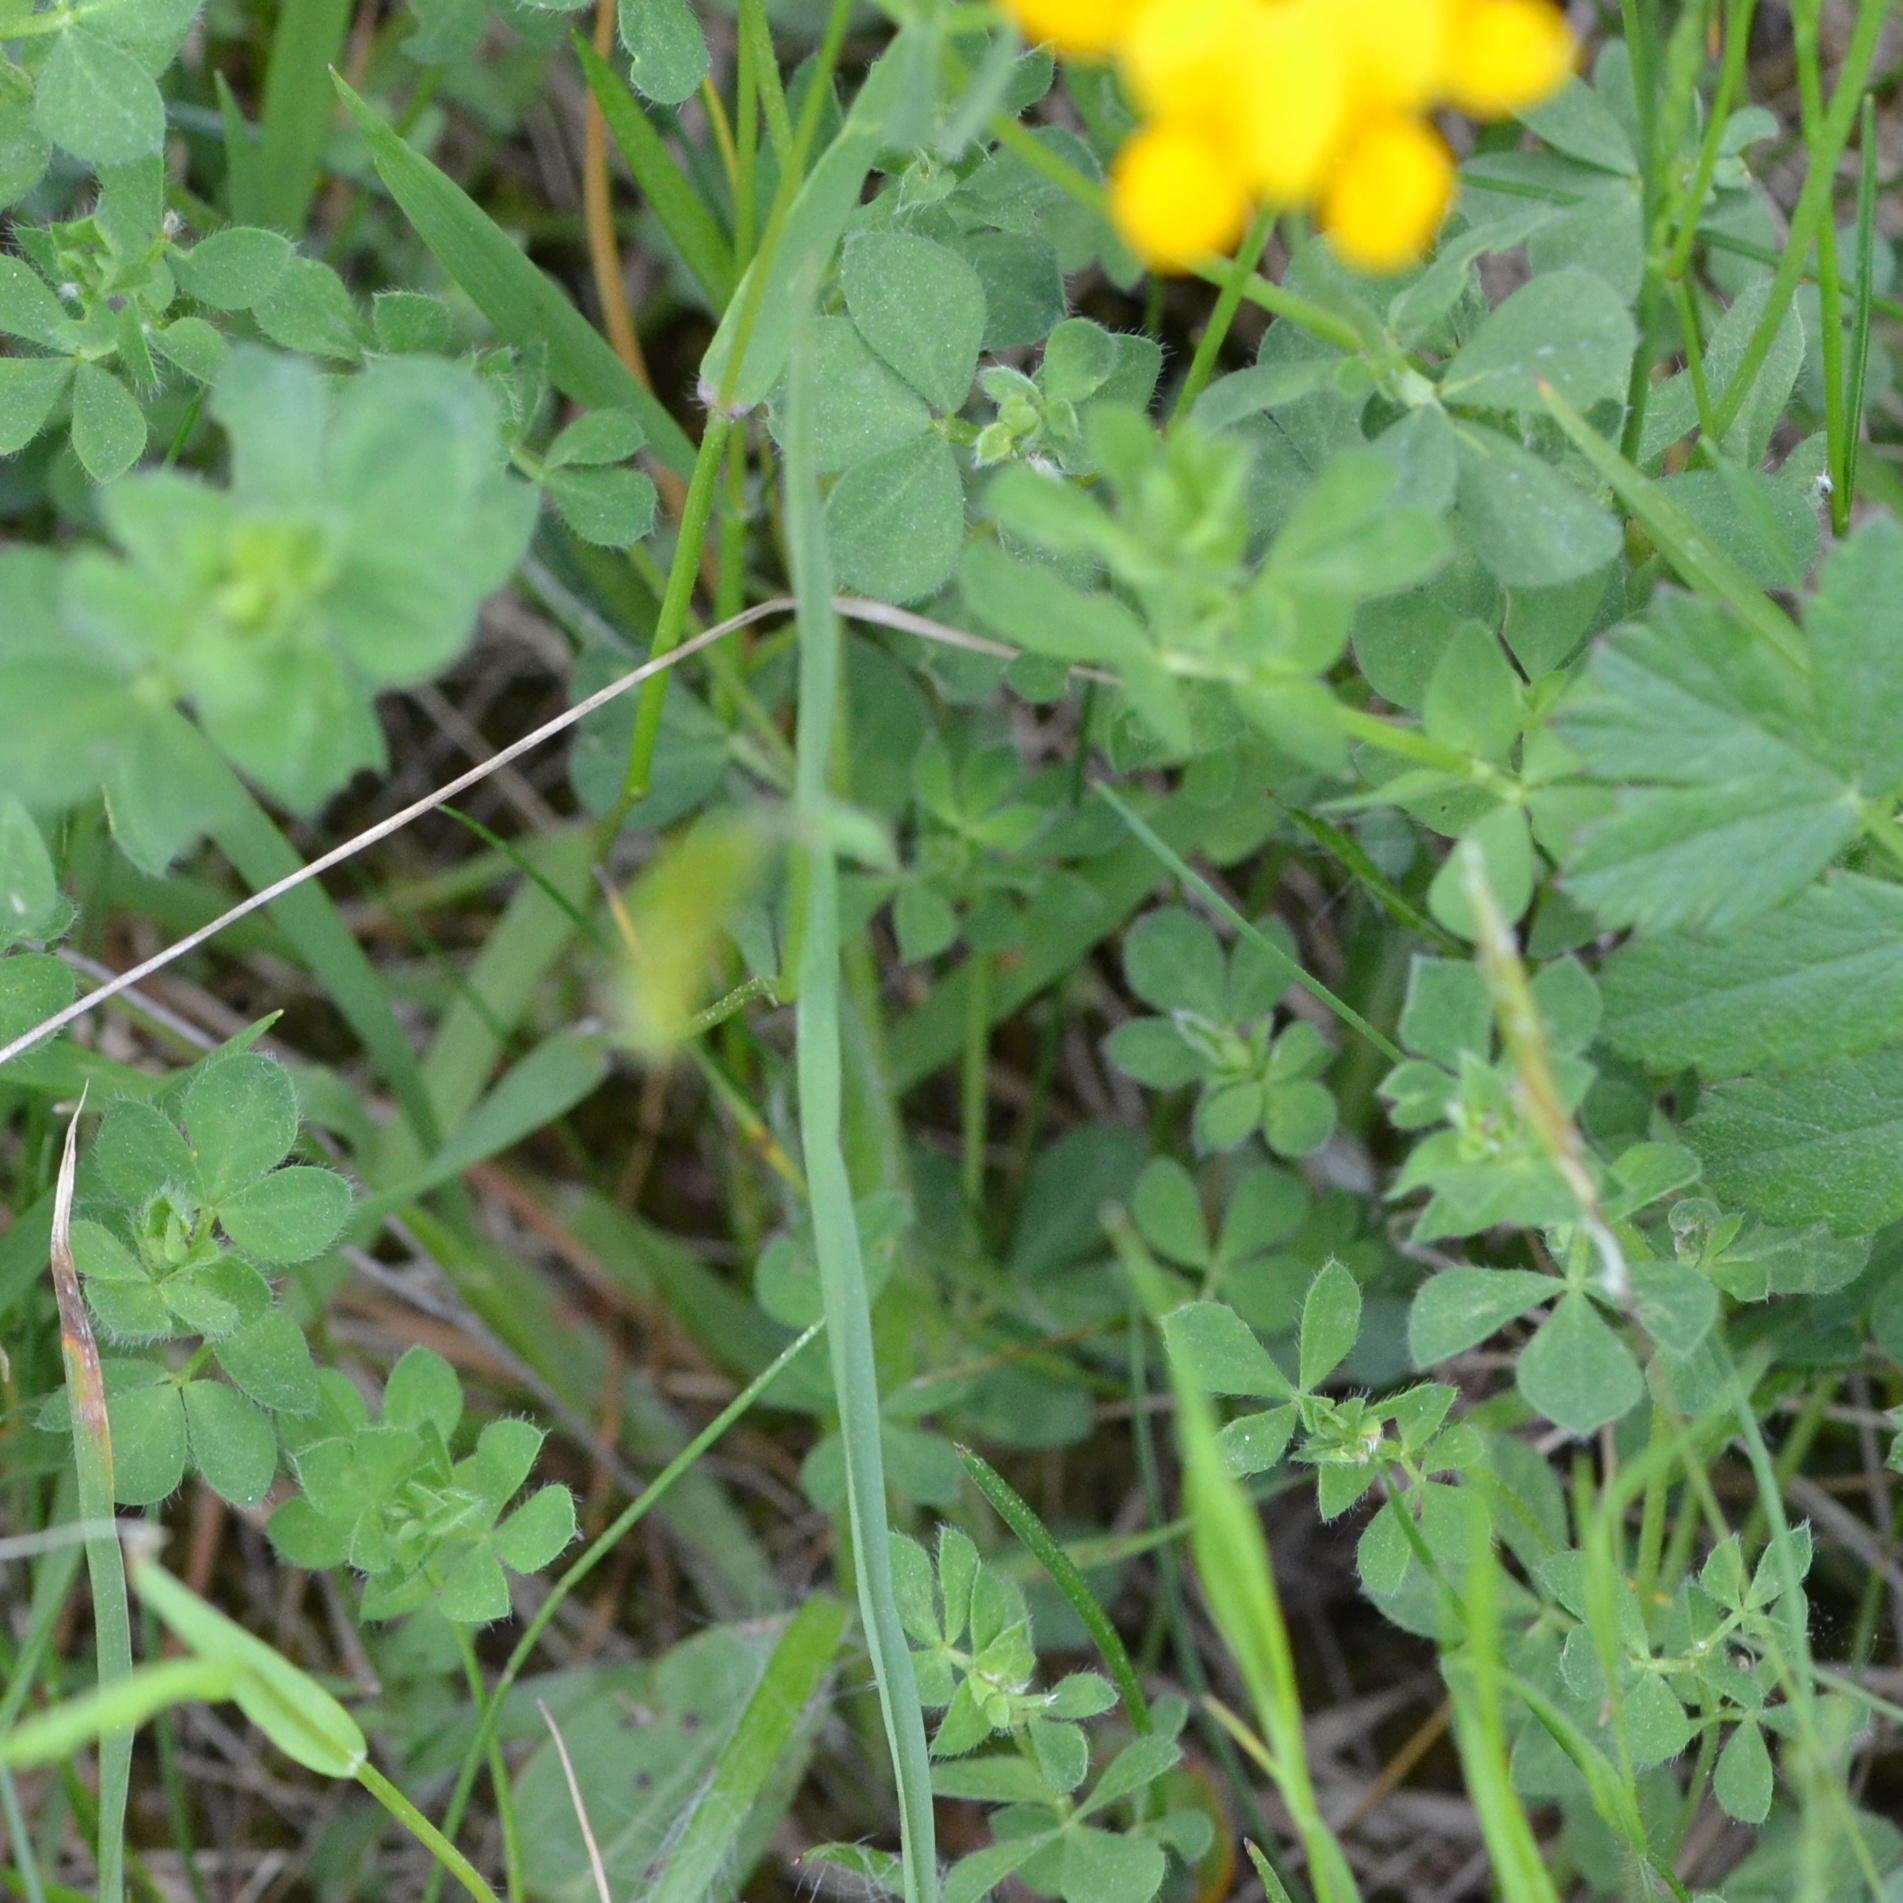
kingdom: Plantae
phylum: Tracheophyta
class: Magnoliopsida
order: Fabales
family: Fabaceae
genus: Lotus
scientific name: Lotus corniculatus
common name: Common bird's-foot-trefoil
